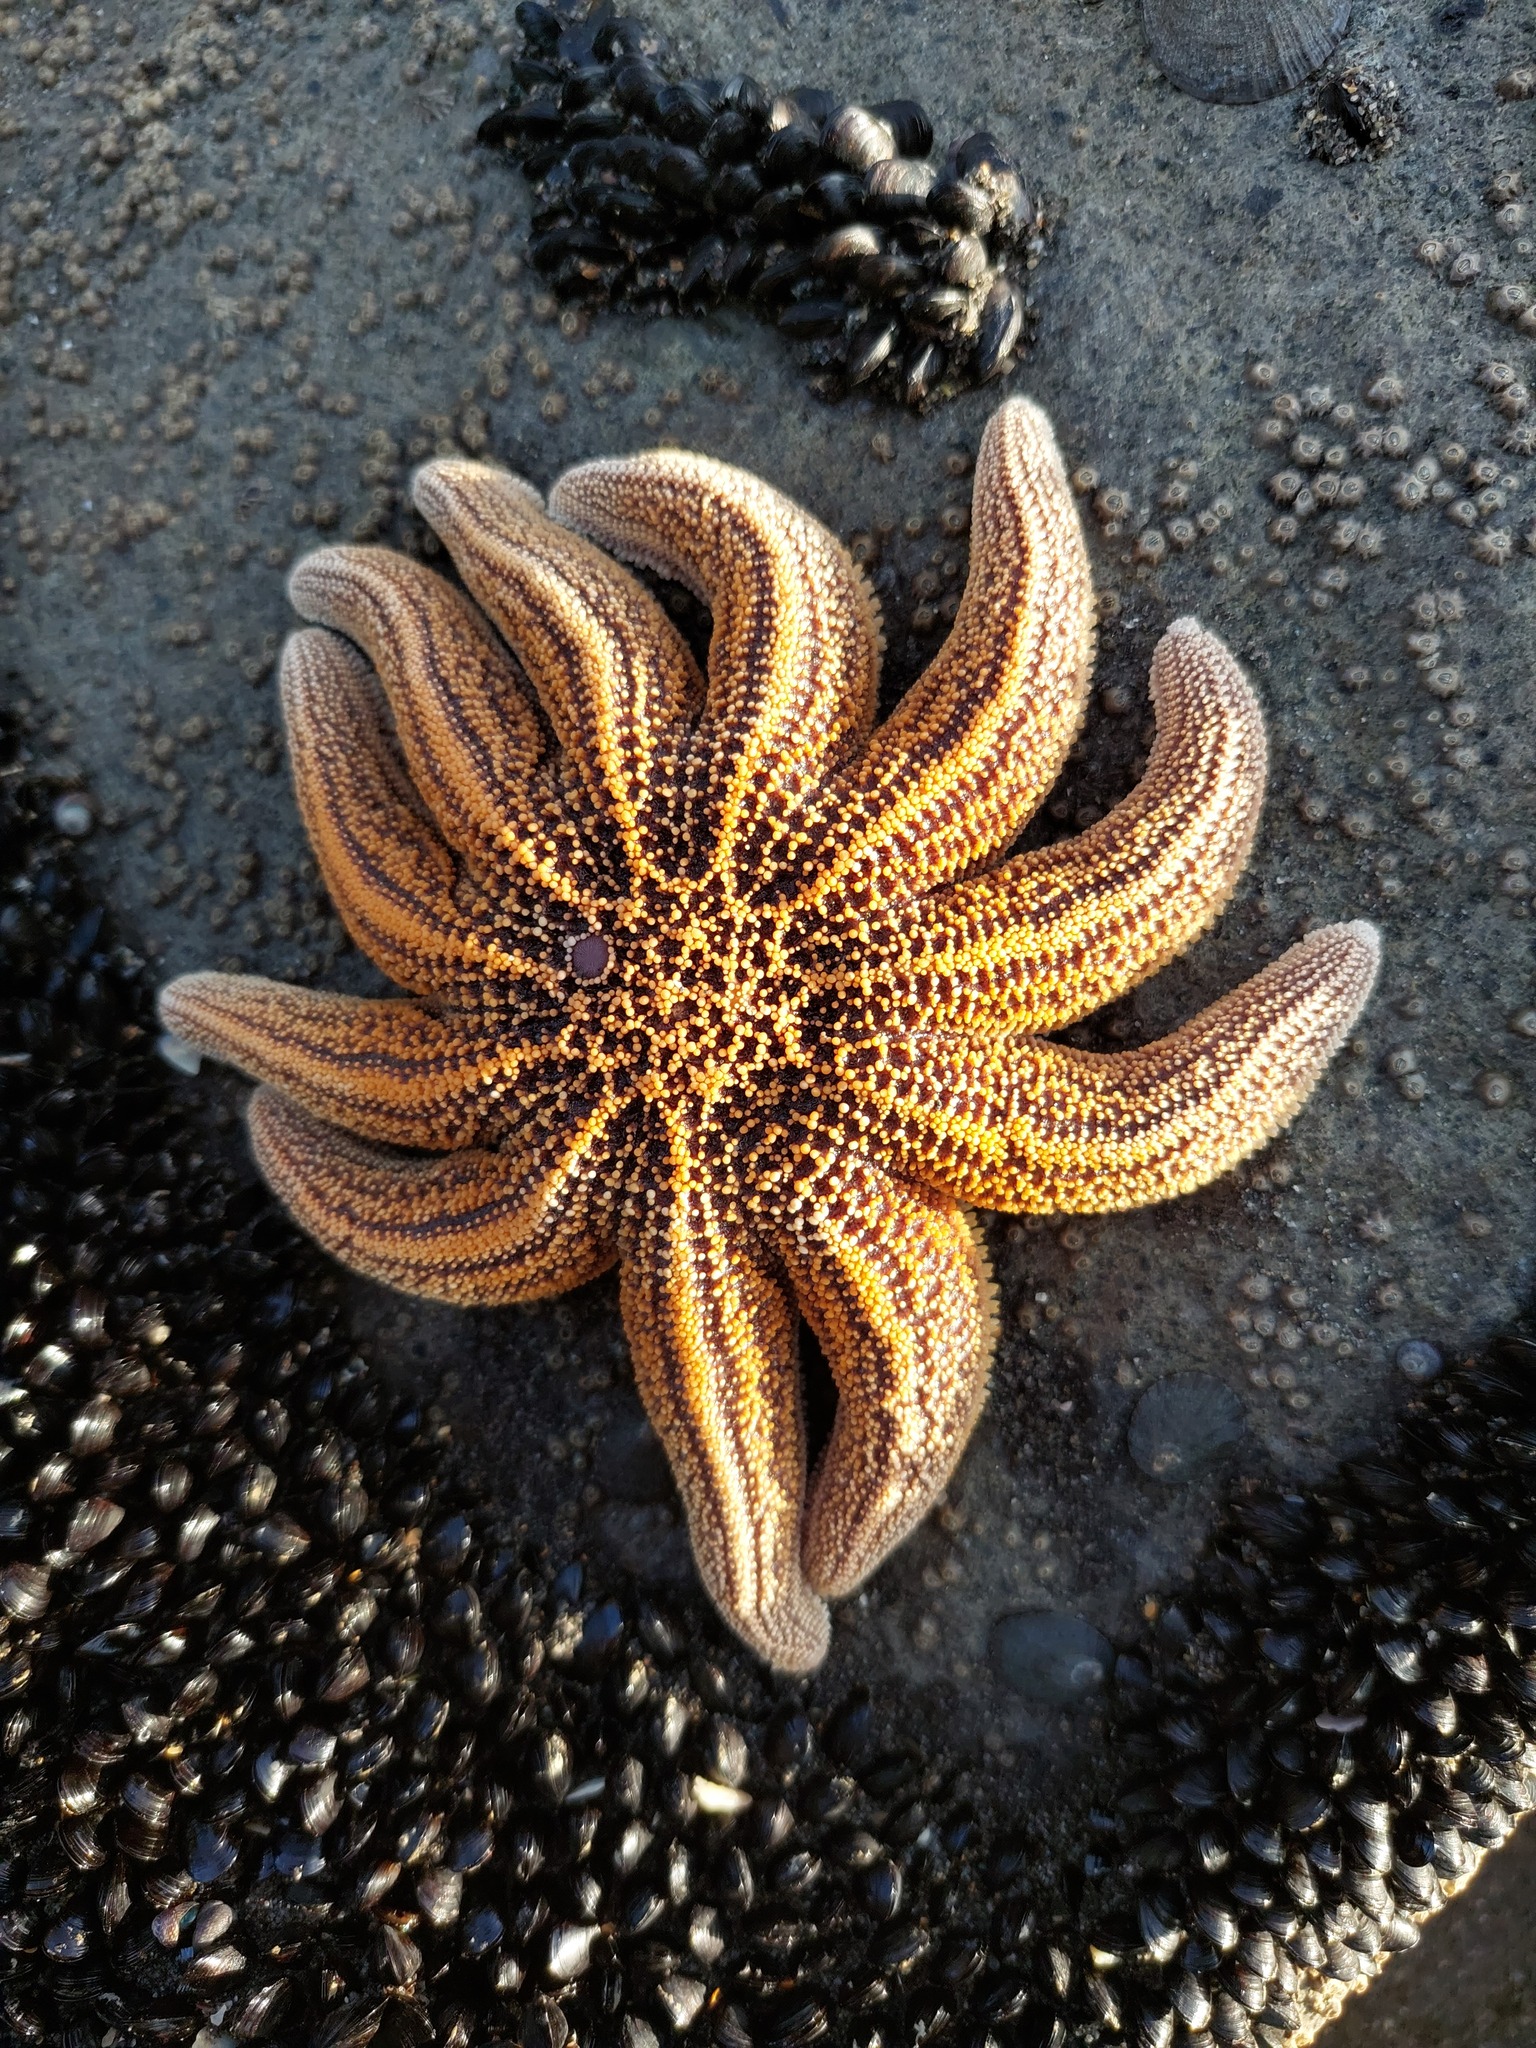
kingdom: Animalia
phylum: Echinodermata
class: Asteroidea
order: Forcipulatida
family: Stichasteridae
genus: Stichaster
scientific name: Stichaster australis
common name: Reef starfish
